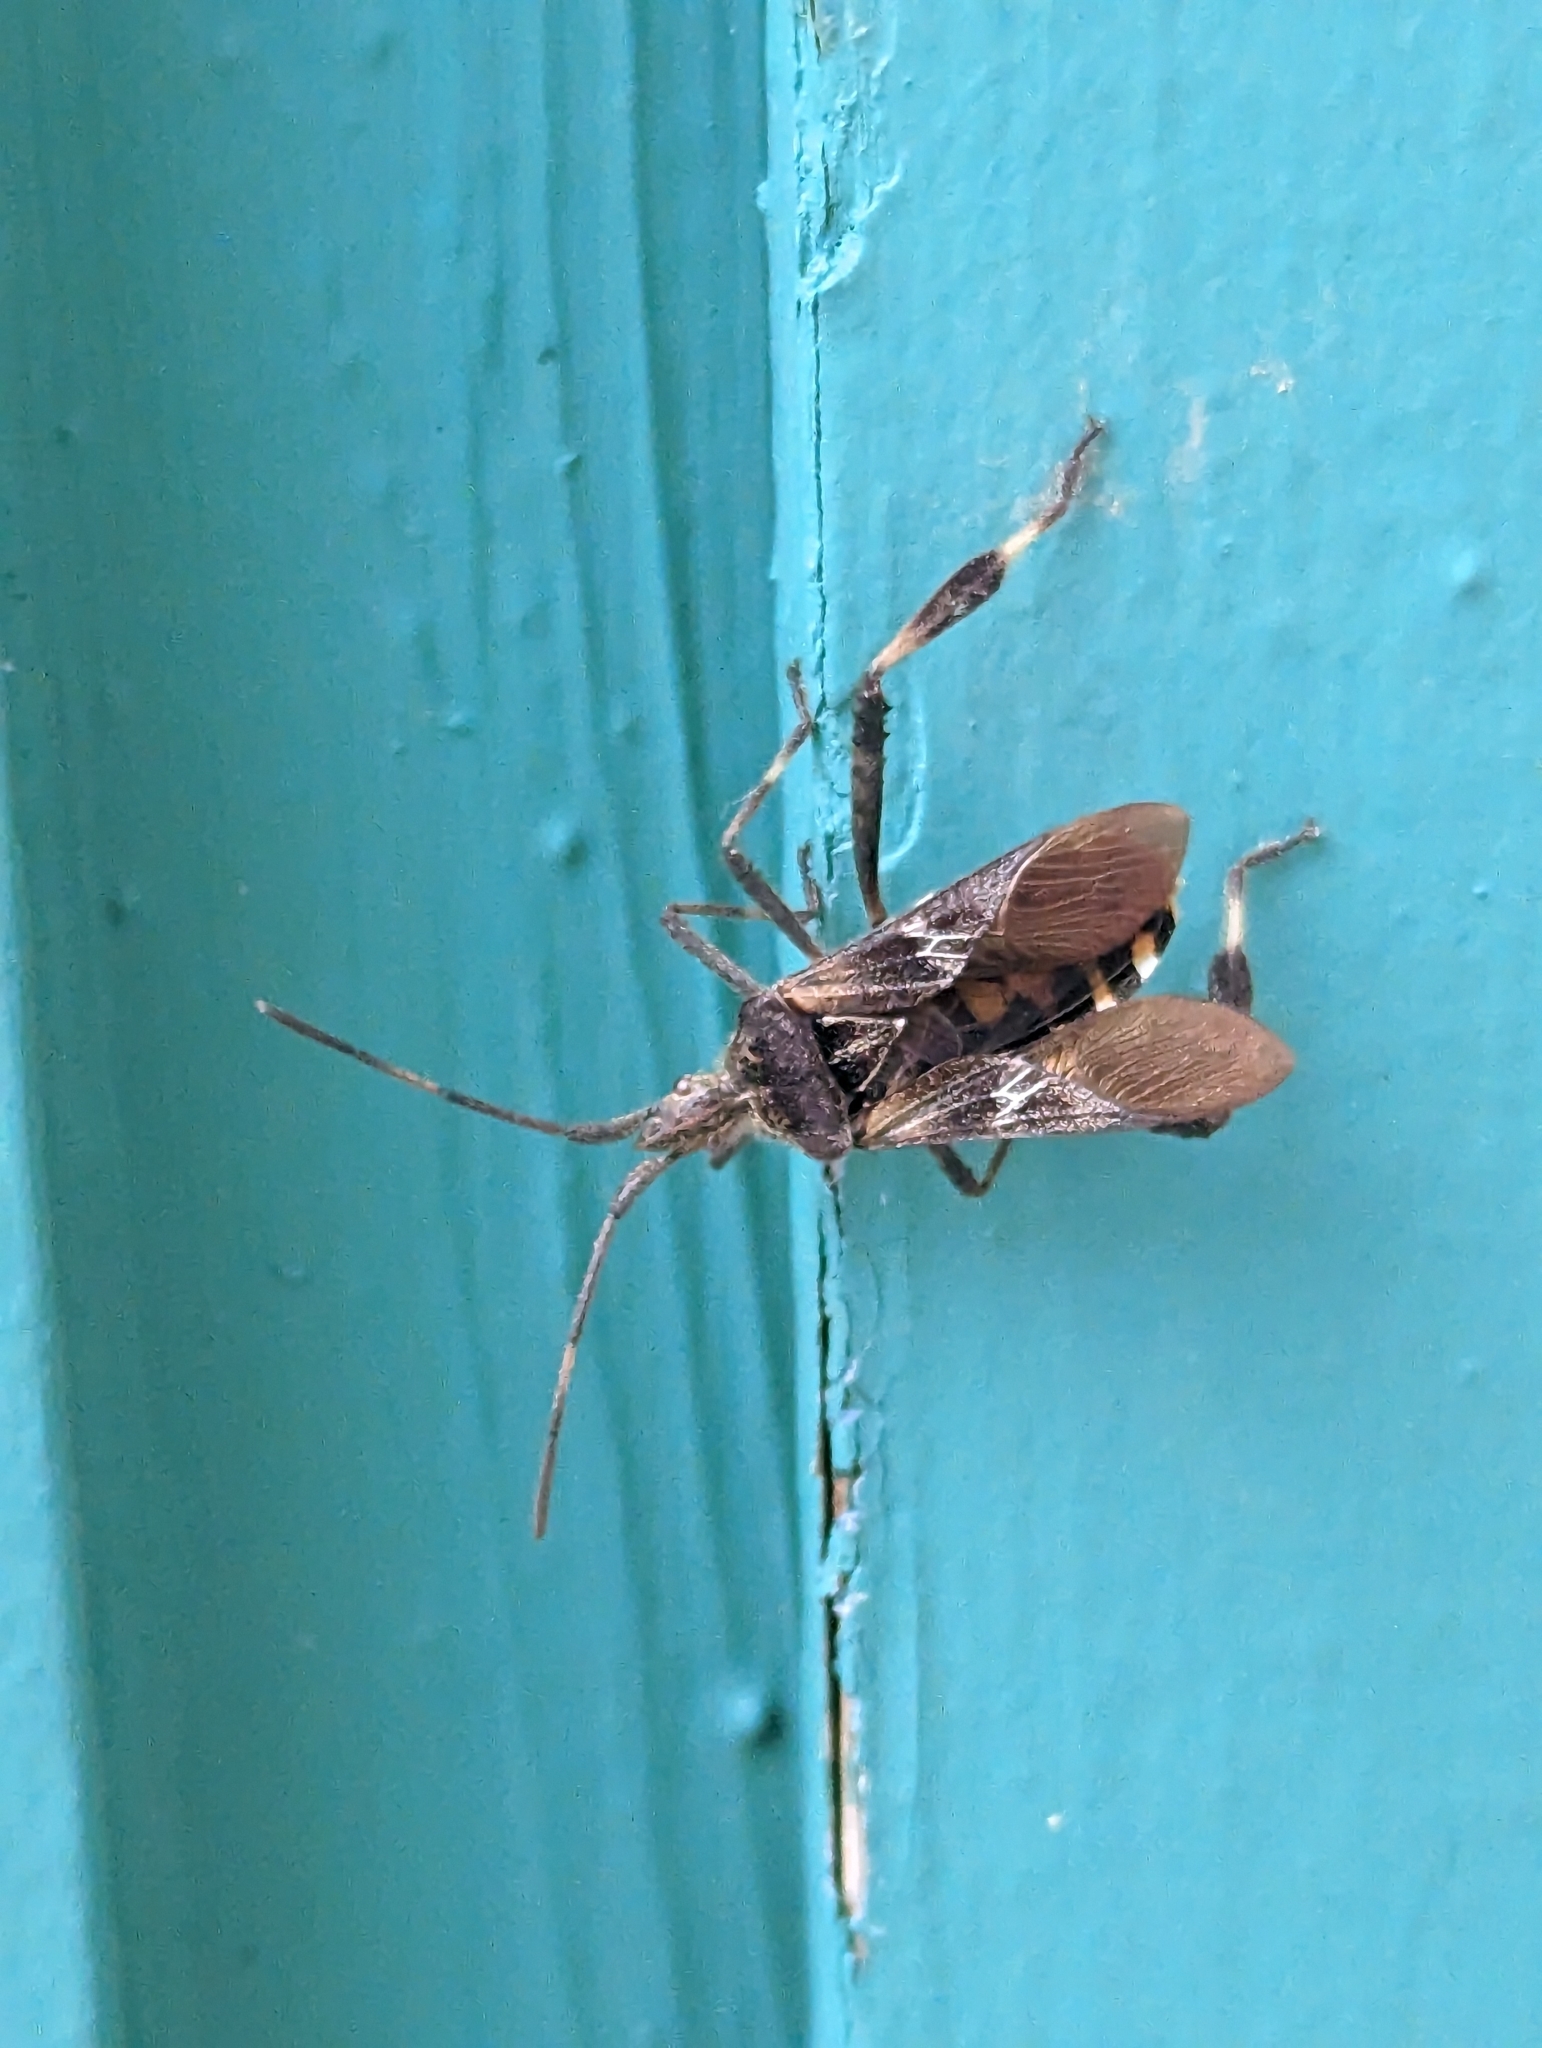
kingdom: Animalia
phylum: Arthropoda
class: Insecta
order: Hemiptera
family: Coreidae
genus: Leptoglossus
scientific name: Leptoglossus occidentalis
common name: Western conifer-seed bug
